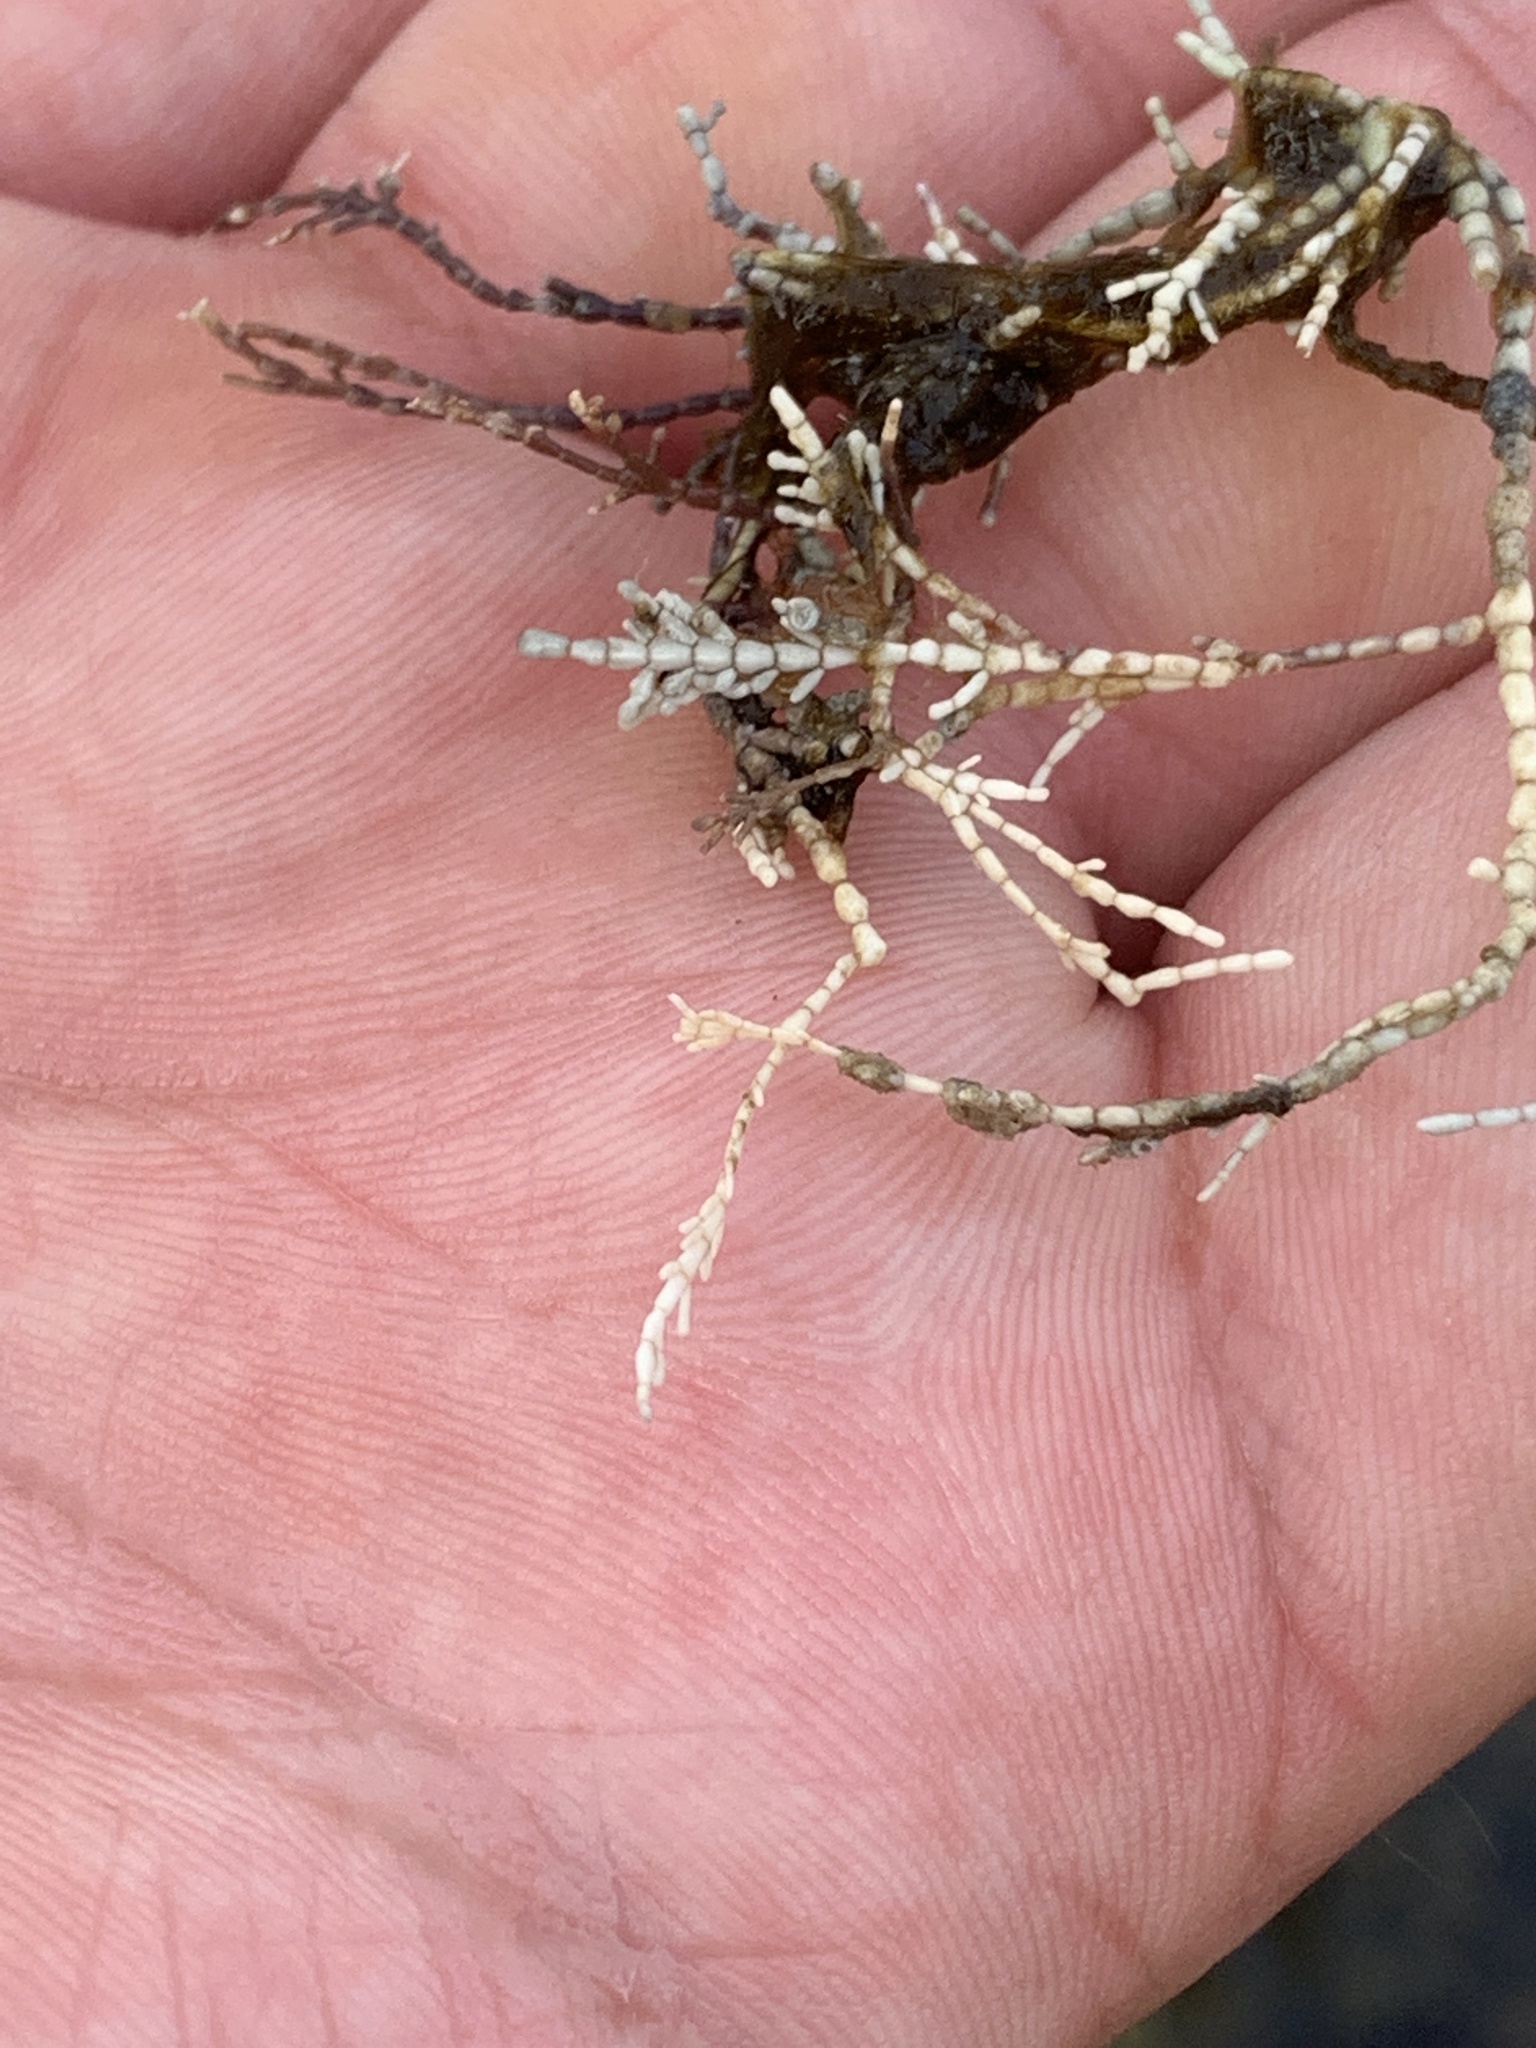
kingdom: Plantae
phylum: Rhodophyta
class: Florideophyceae
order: Corallinales
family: Corallinaceae
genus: Corallina
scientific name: Corallina officinalis
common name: Coral weed
